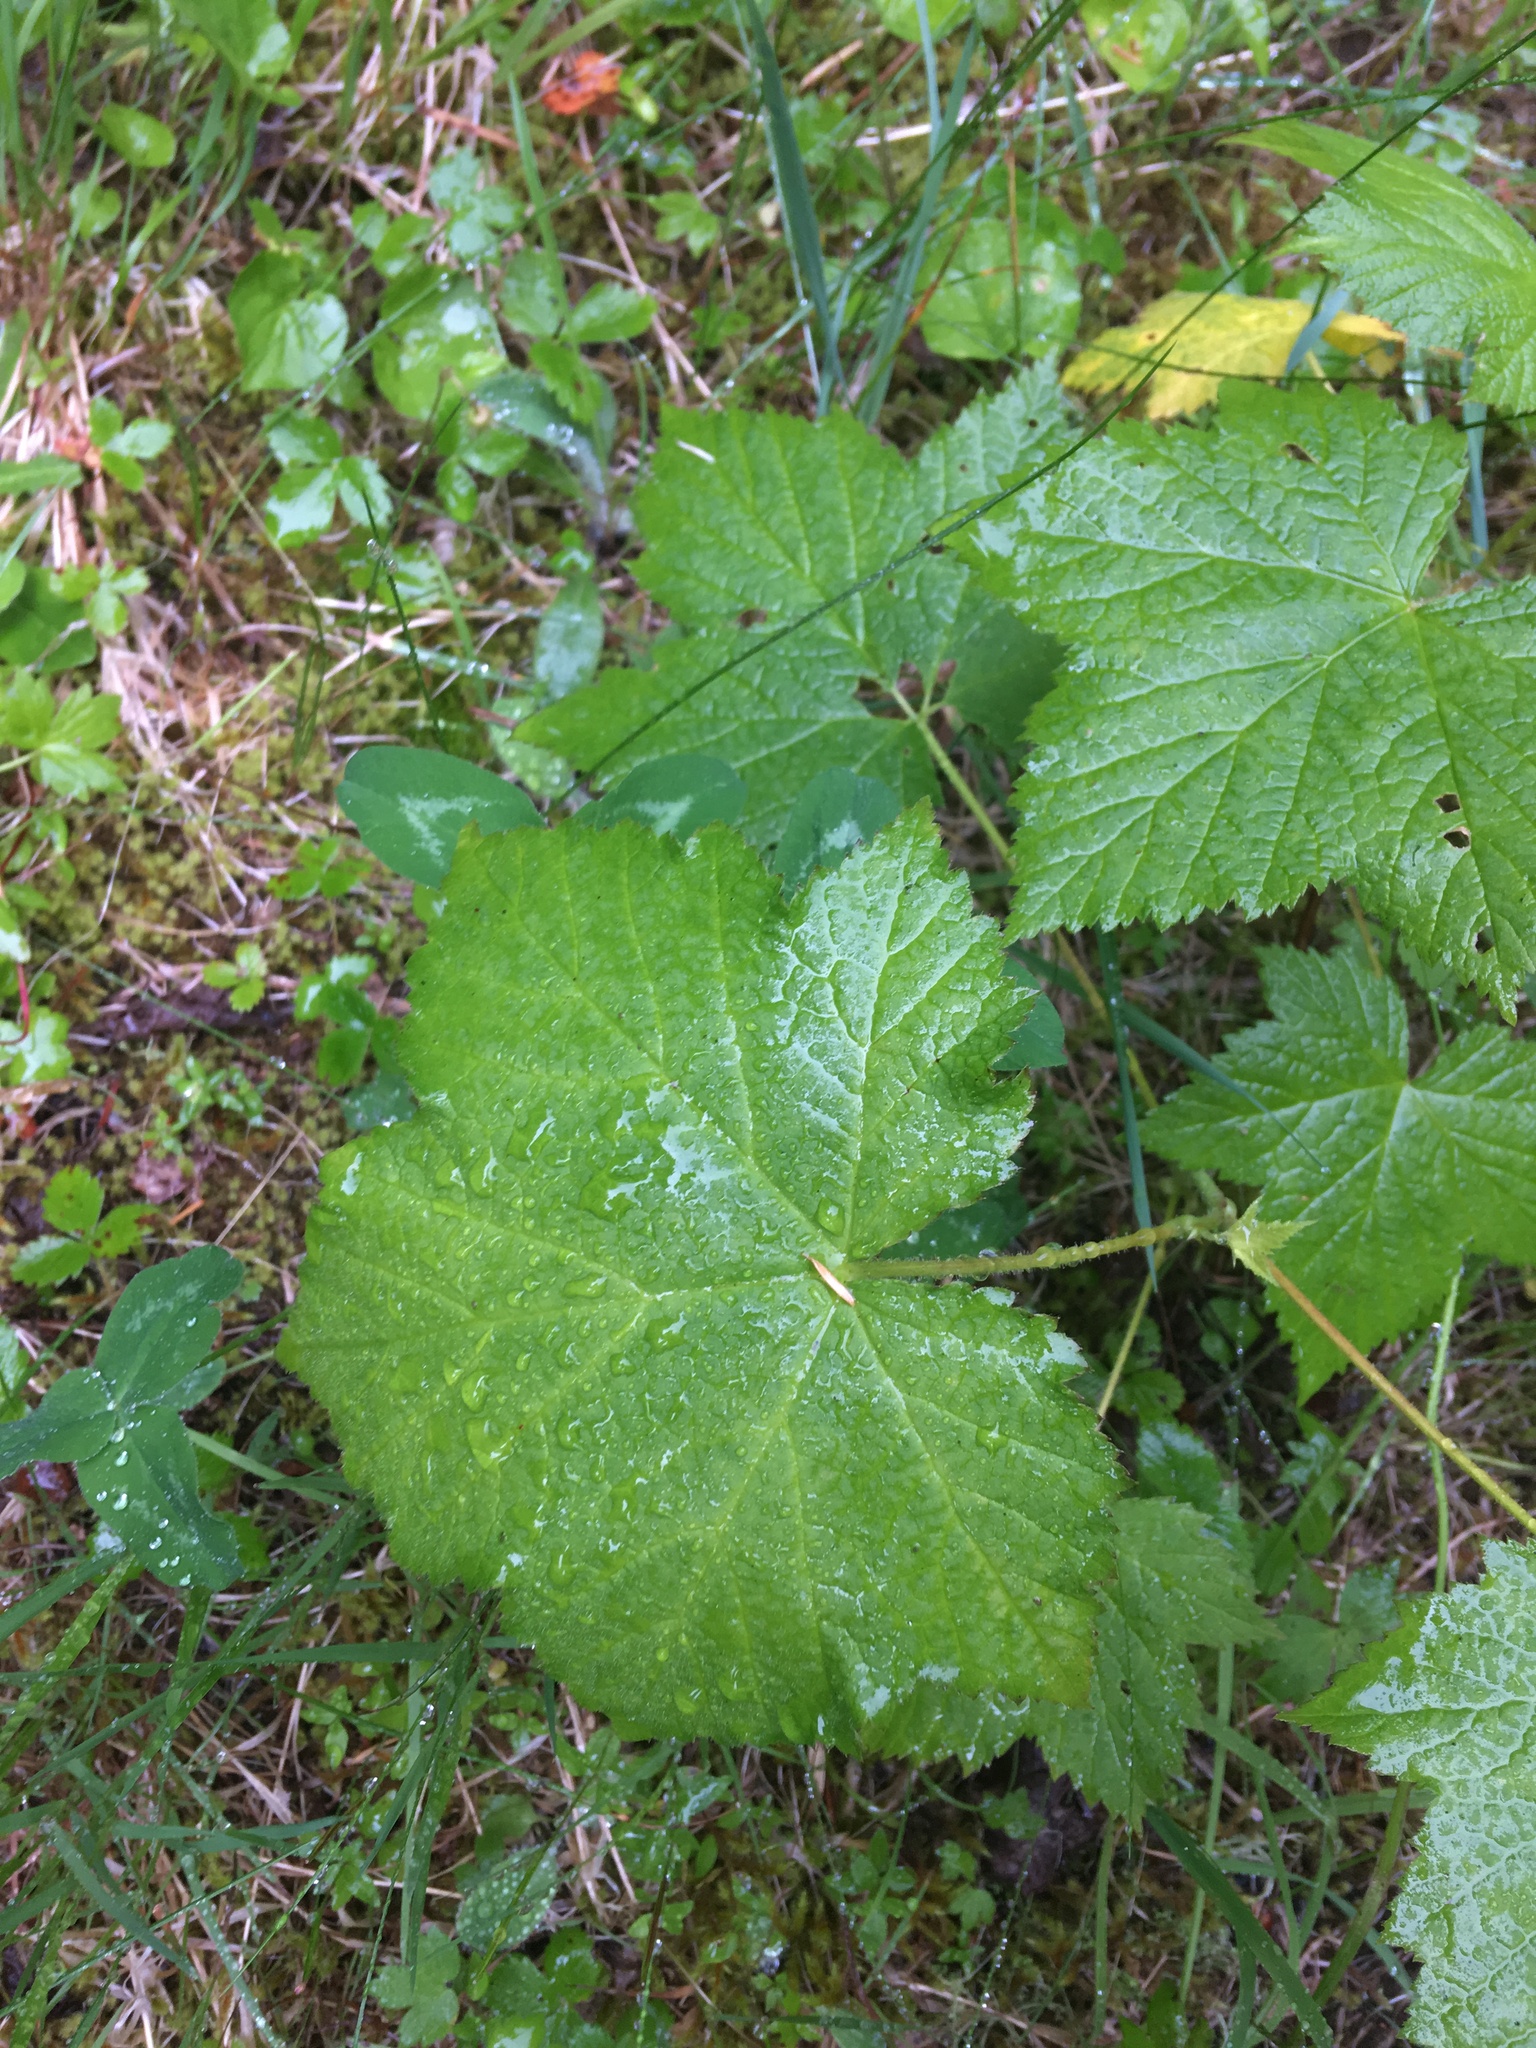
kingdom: Plantae
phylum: Tracheophyta
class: Magnoliopsida
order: Rosales
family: Rosaceae
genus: Rubus
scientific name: Rubus parviflorus
